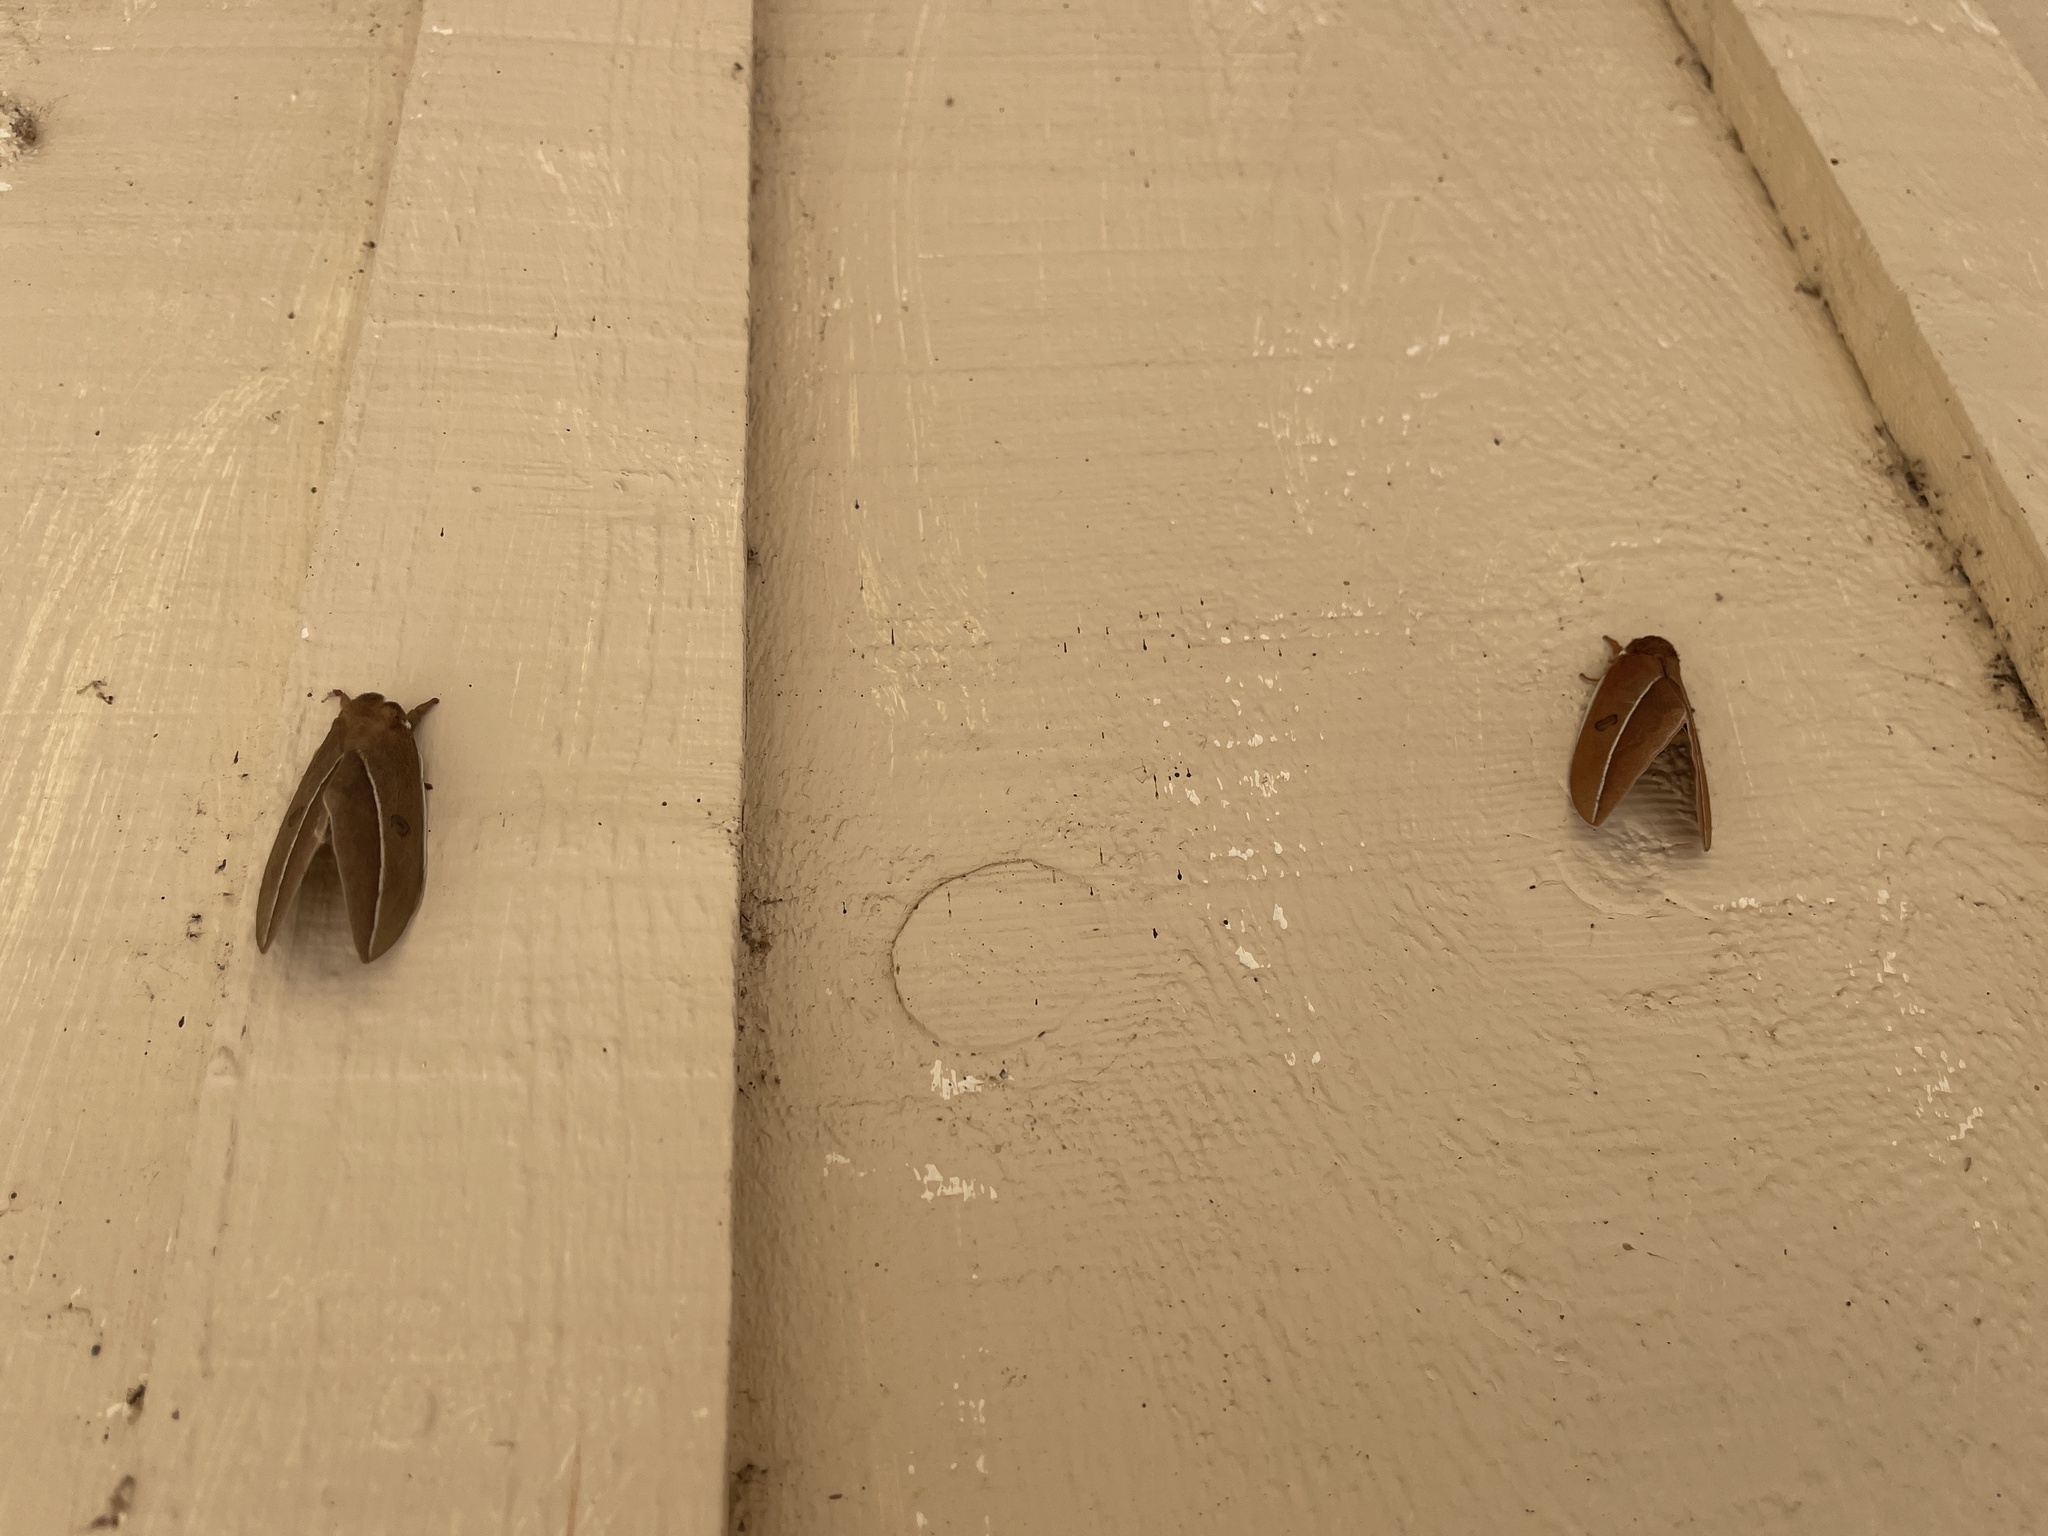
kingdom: Animalia
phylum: Arthropoda
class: Insecta
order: Lepidoptera
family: Saturniidae
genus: Automeris
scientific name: Automeris zephyria
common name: Zephyr eyed silkmoth
